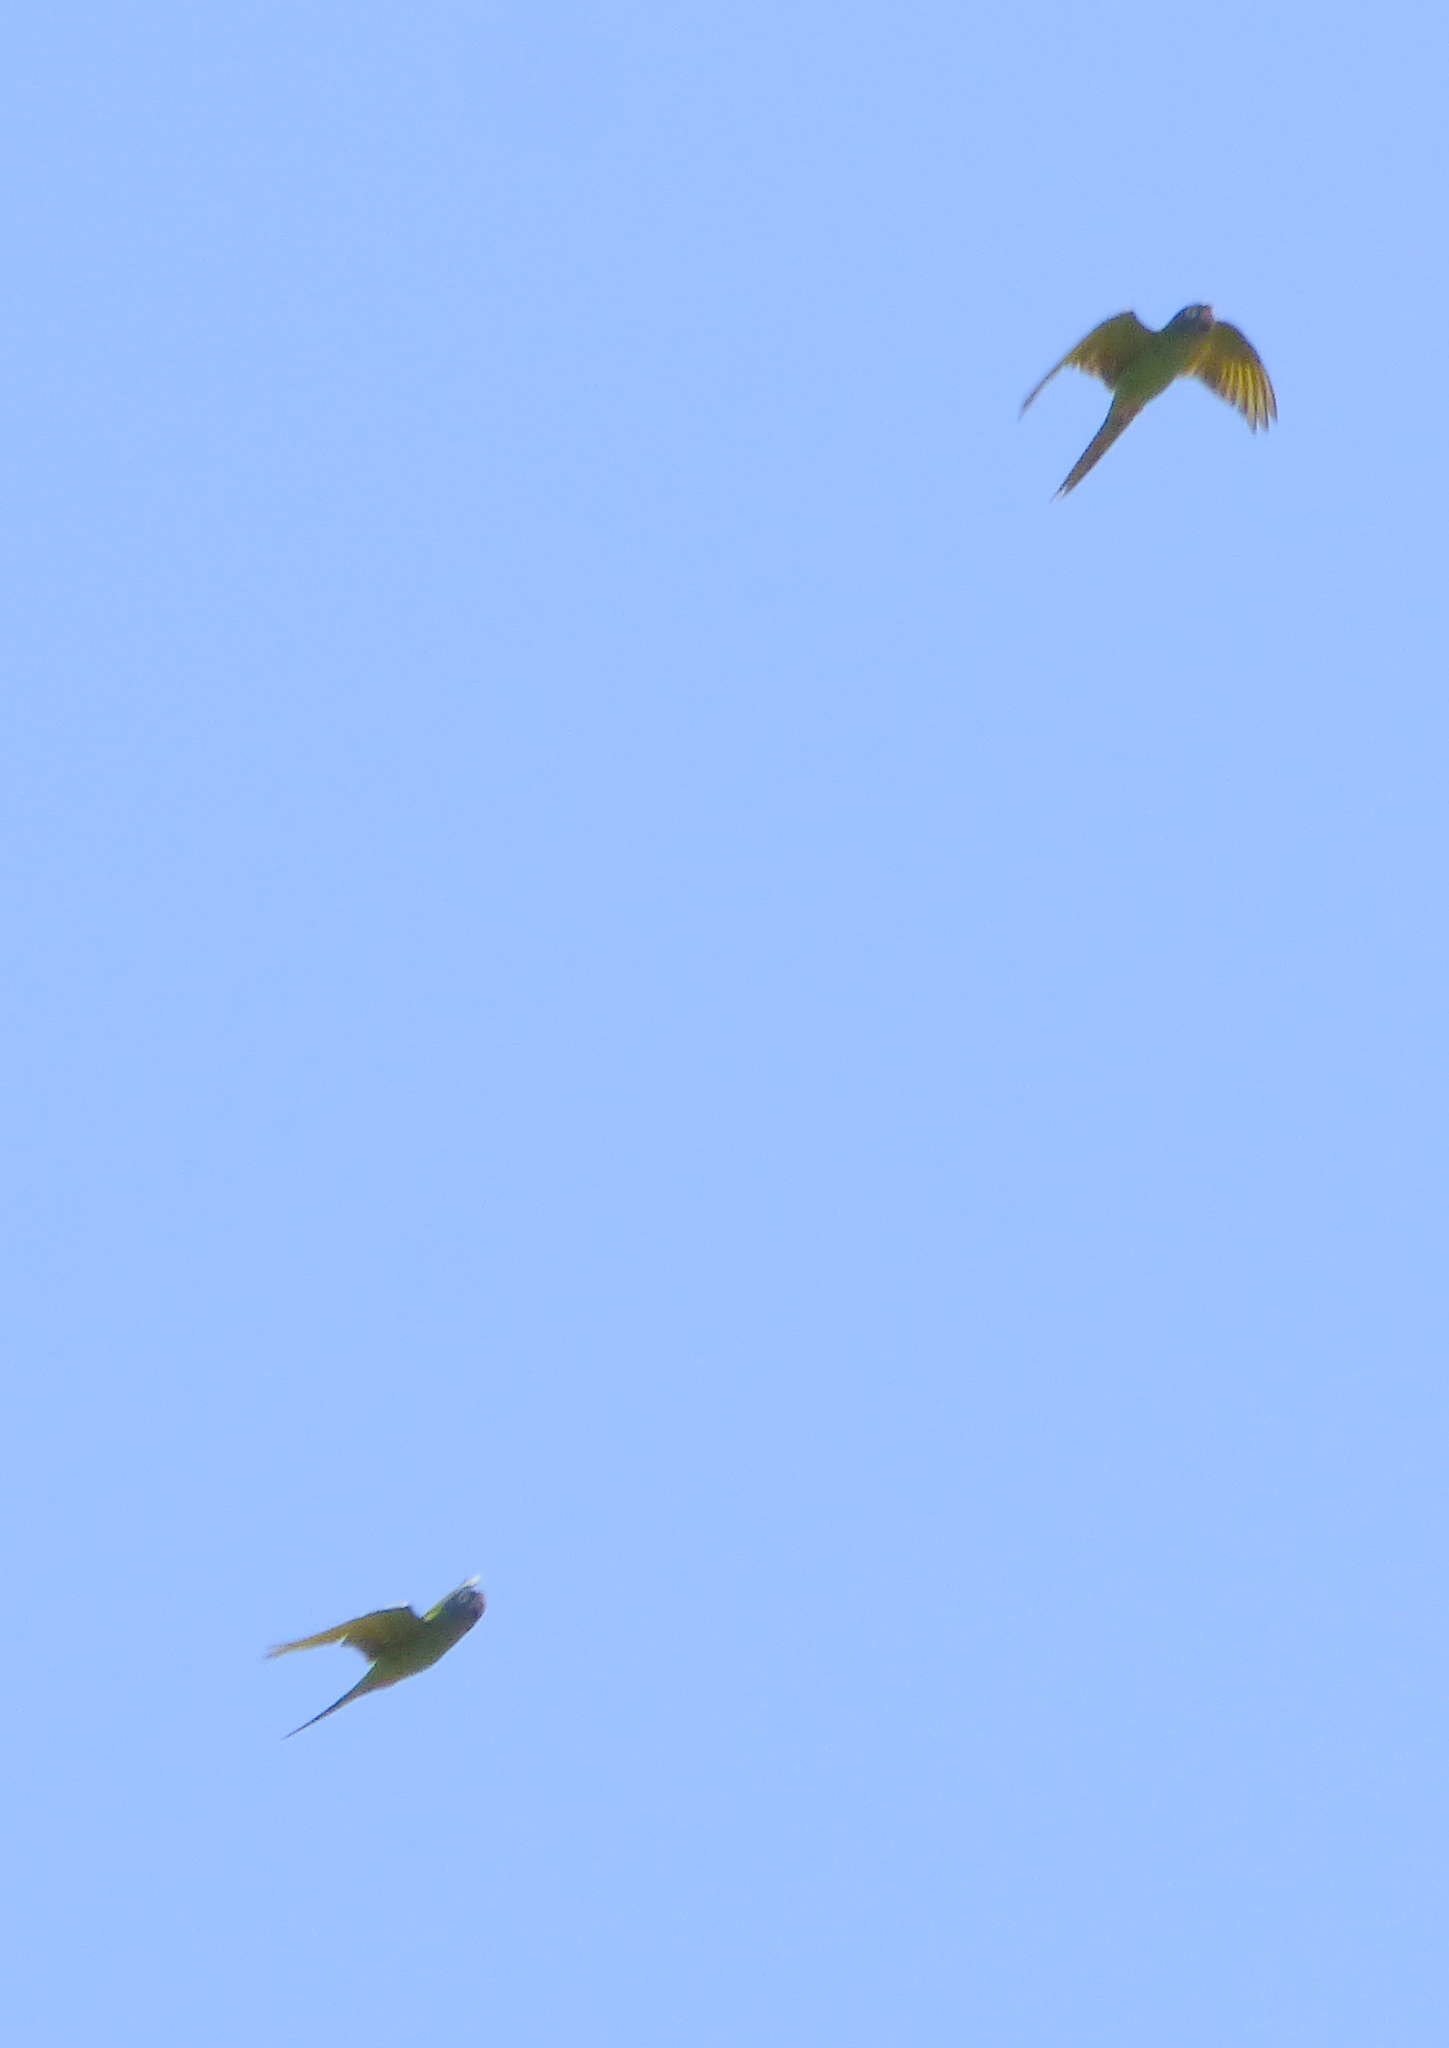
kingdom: Animalia
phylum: Chordata
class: Aves
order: Psittaciformes
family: Psittacidae
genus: Aratinga
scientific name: Aratinga acuticaudata
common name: Blue-crowned parakeet
